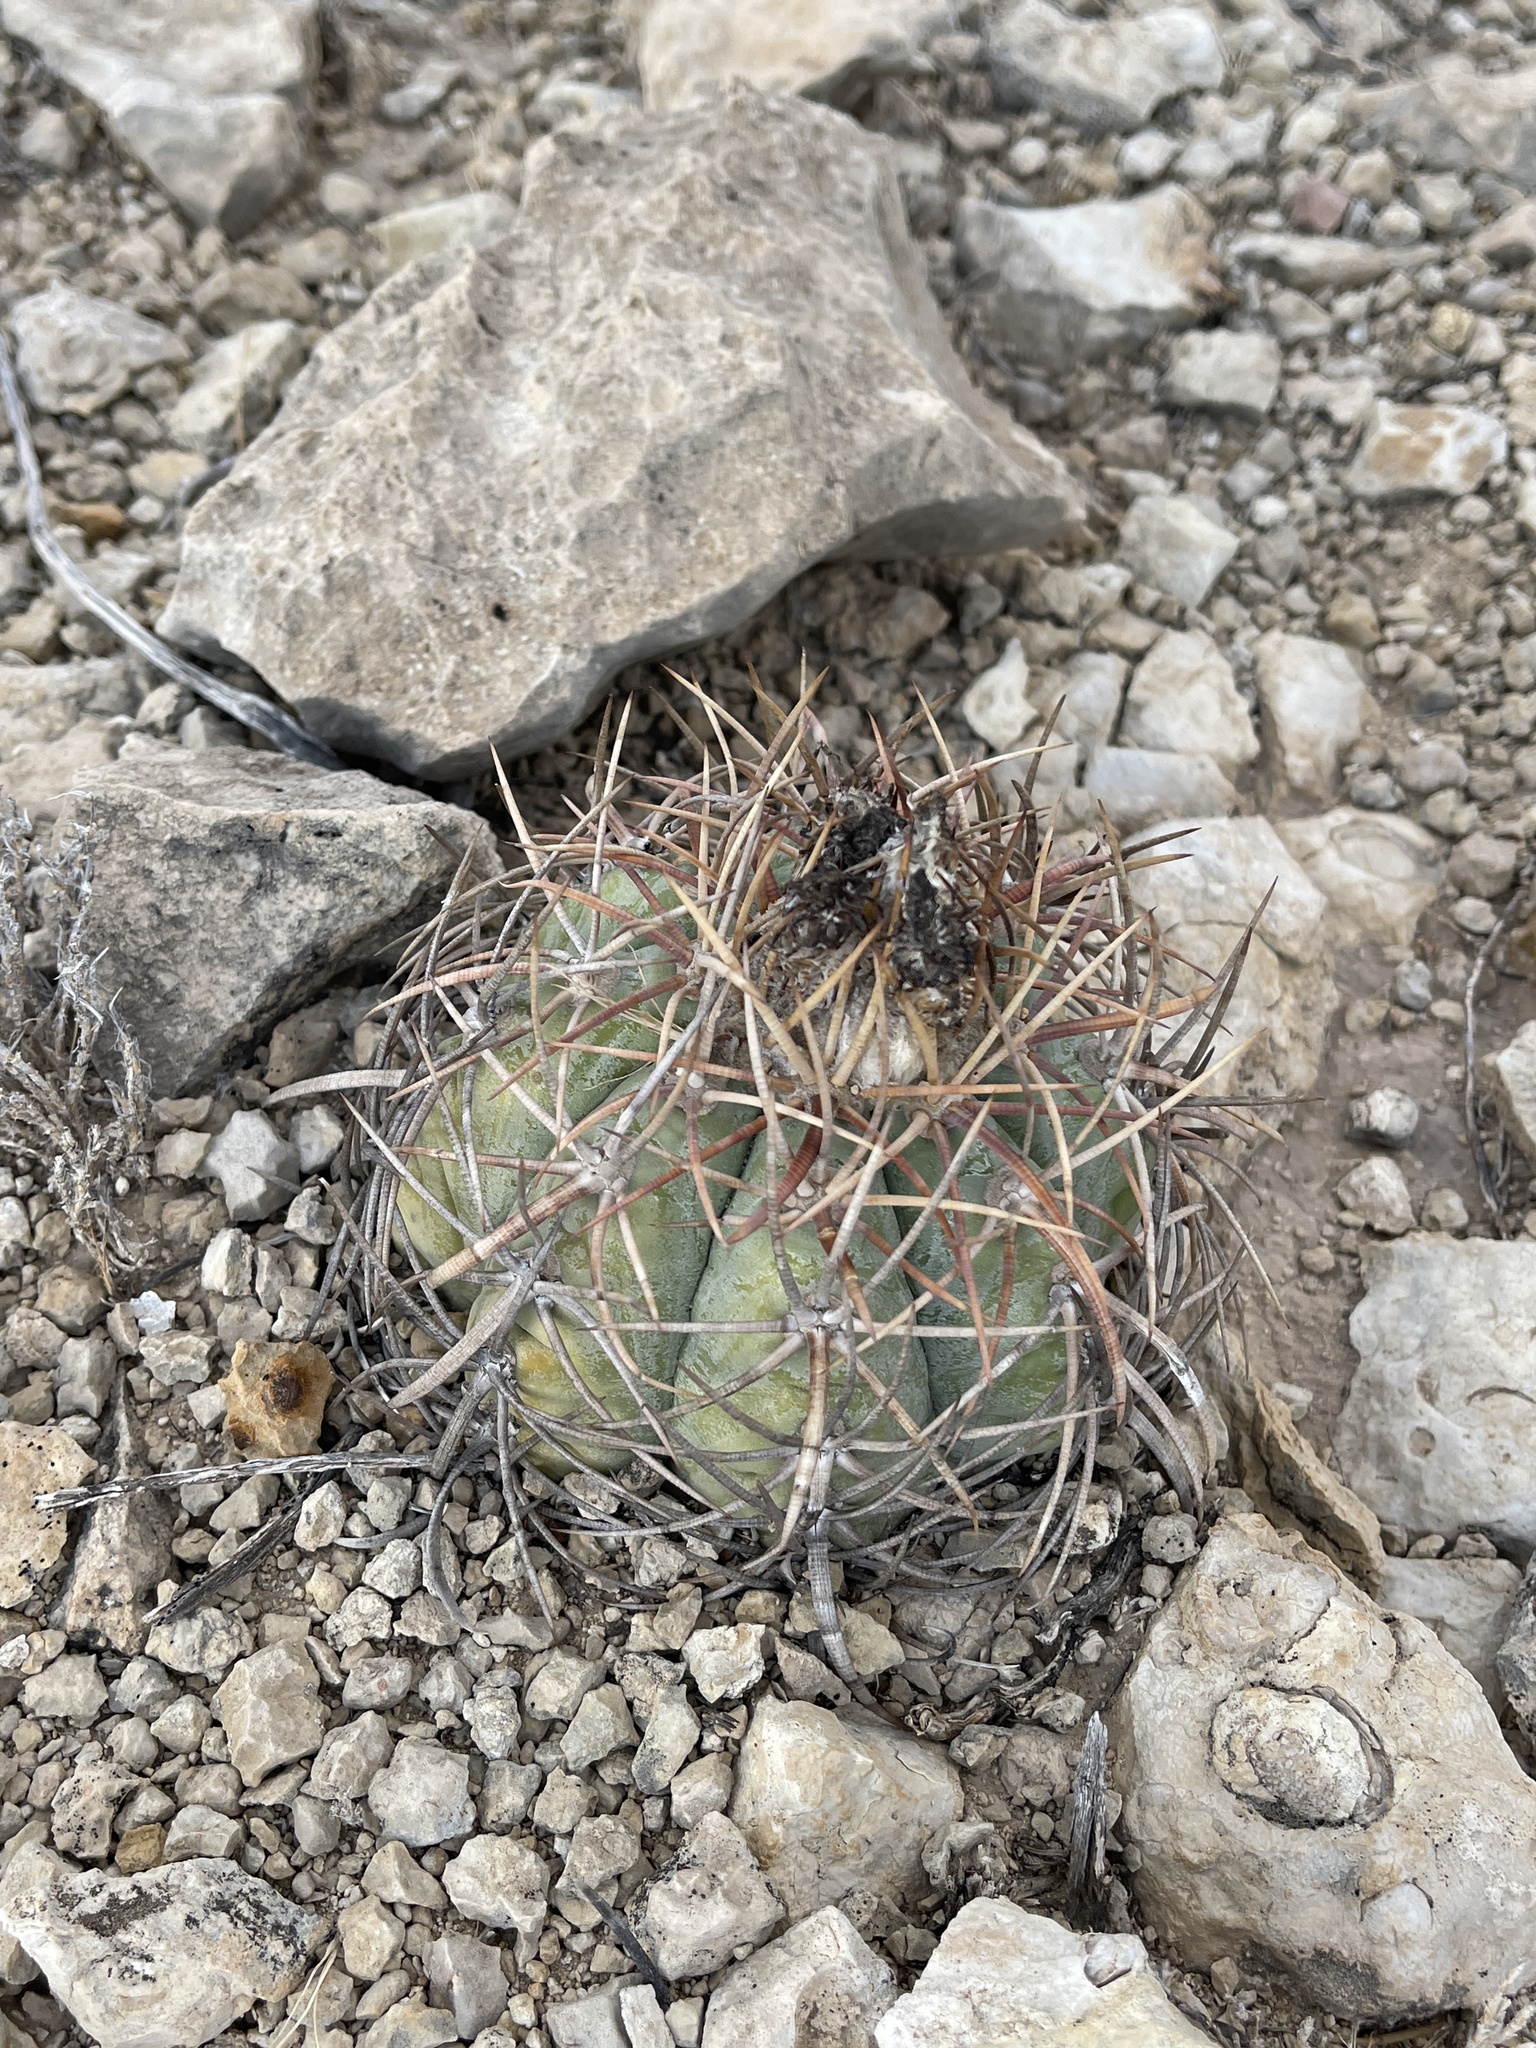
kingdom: Plantae
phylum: Tracheophyta
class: Magnoliopsida
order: Caryophyllales
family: Cactaceae
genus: Echinocactus
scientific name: Echinocactus horizonthalonius
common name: Devilshead
